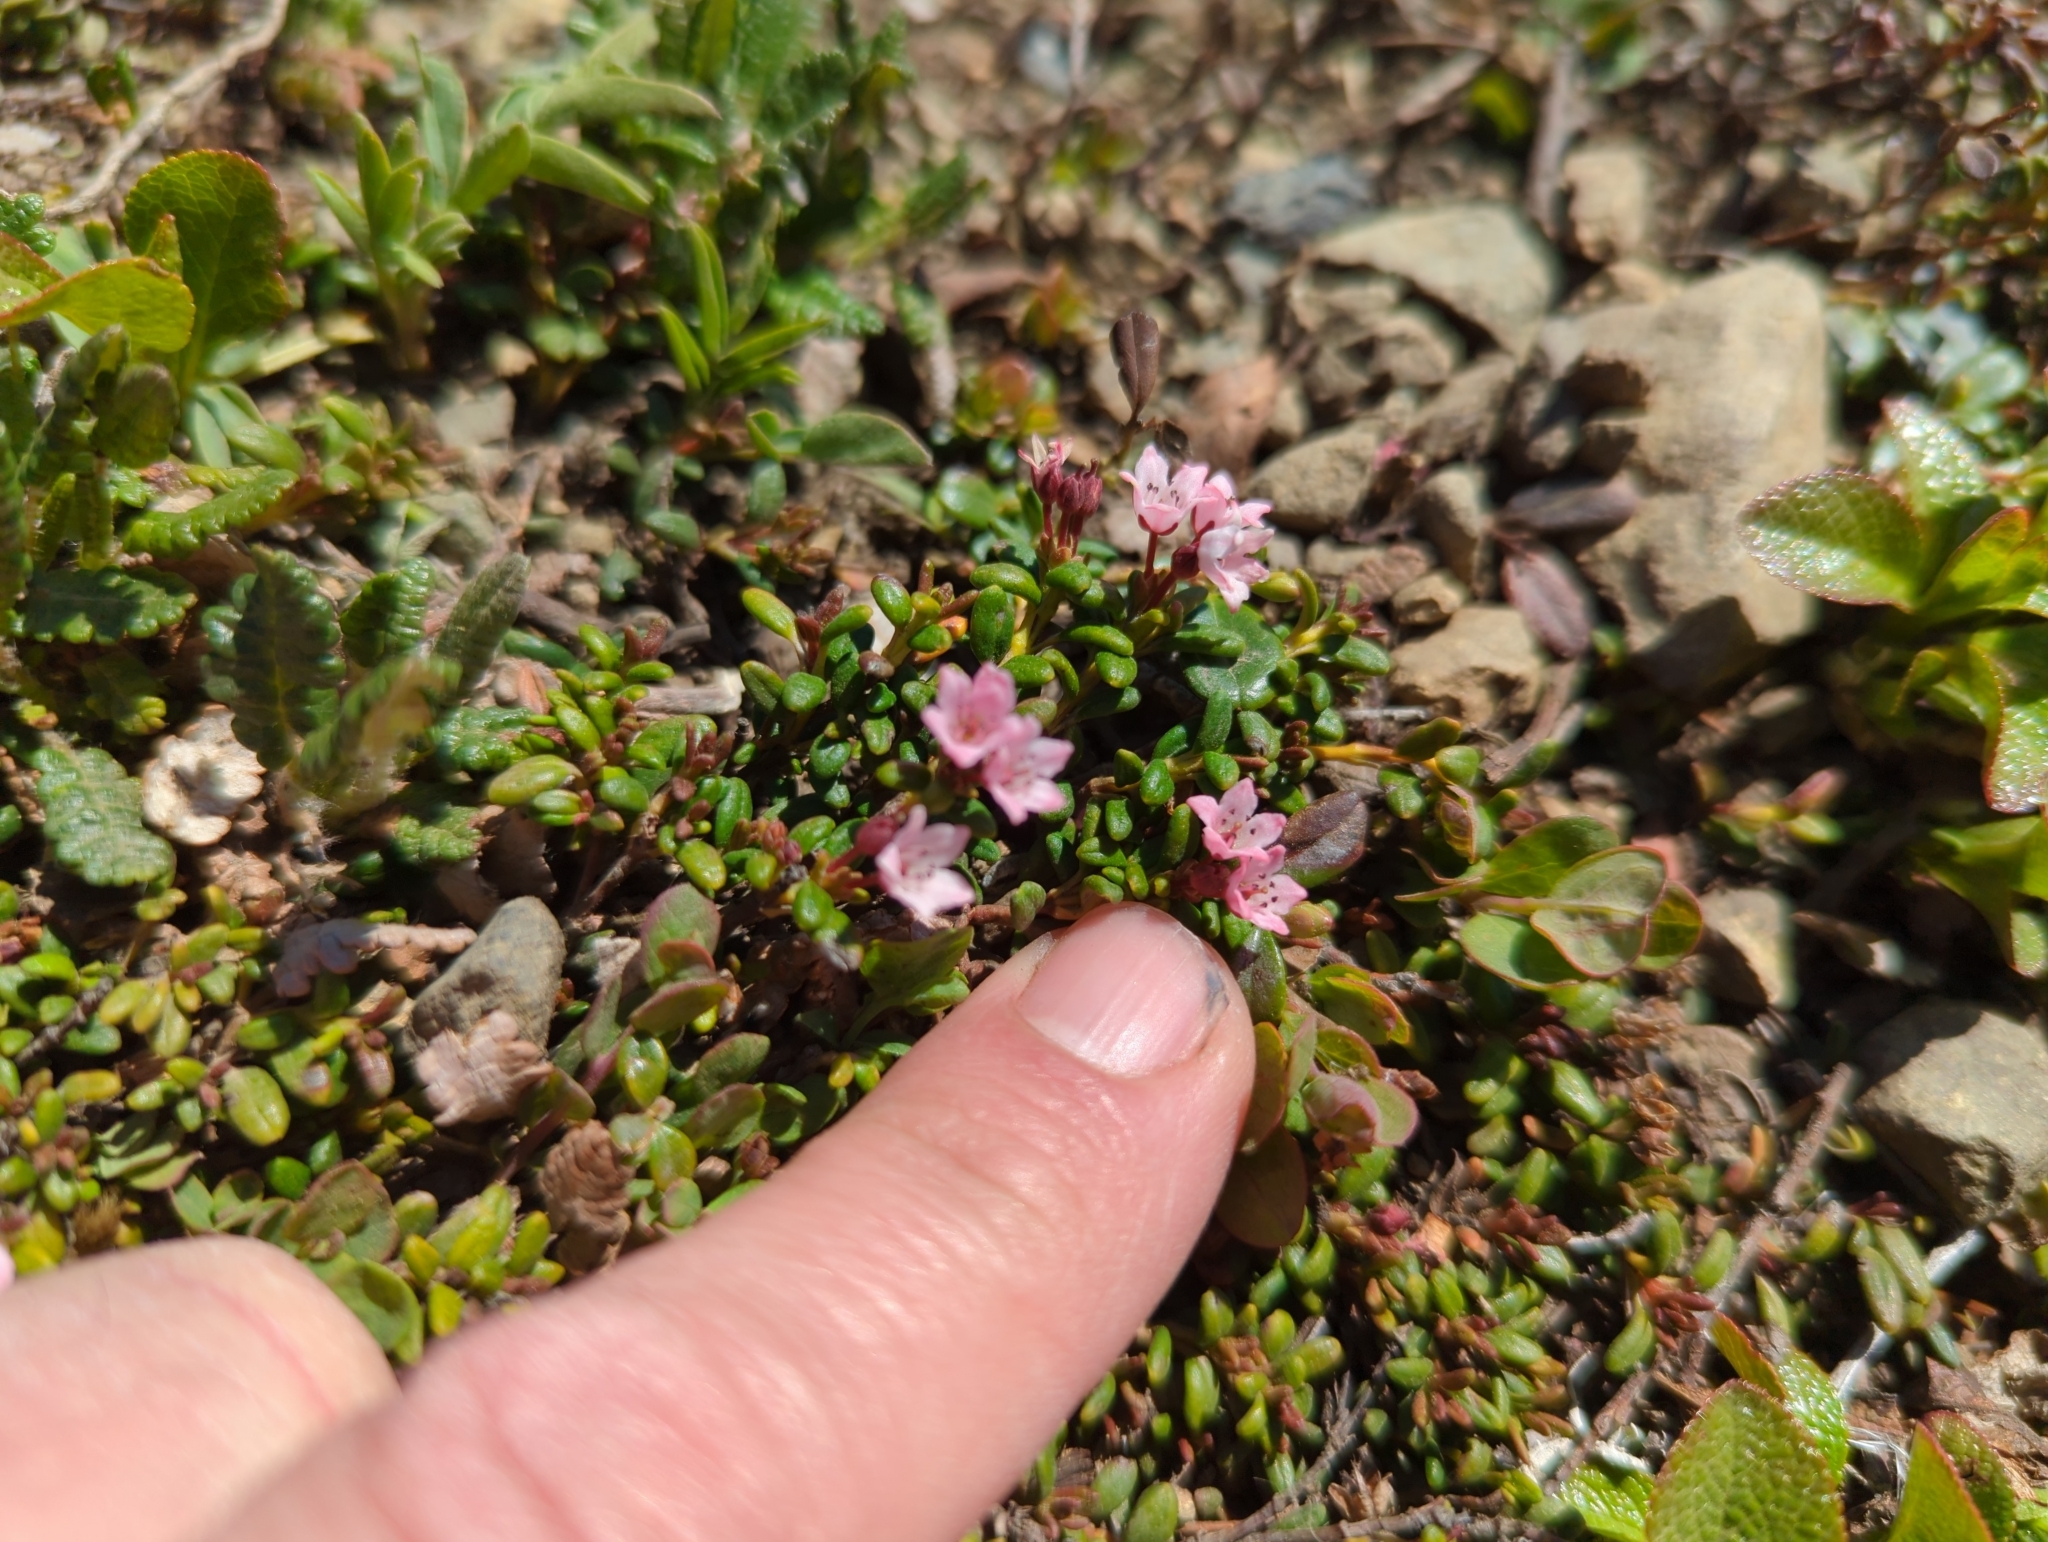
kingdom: Plantae
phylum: Tracheophyta
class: Magnoliopsida
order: Ericales
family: Ericaceae
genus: Kalmia
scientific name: Kalmia procumbens
